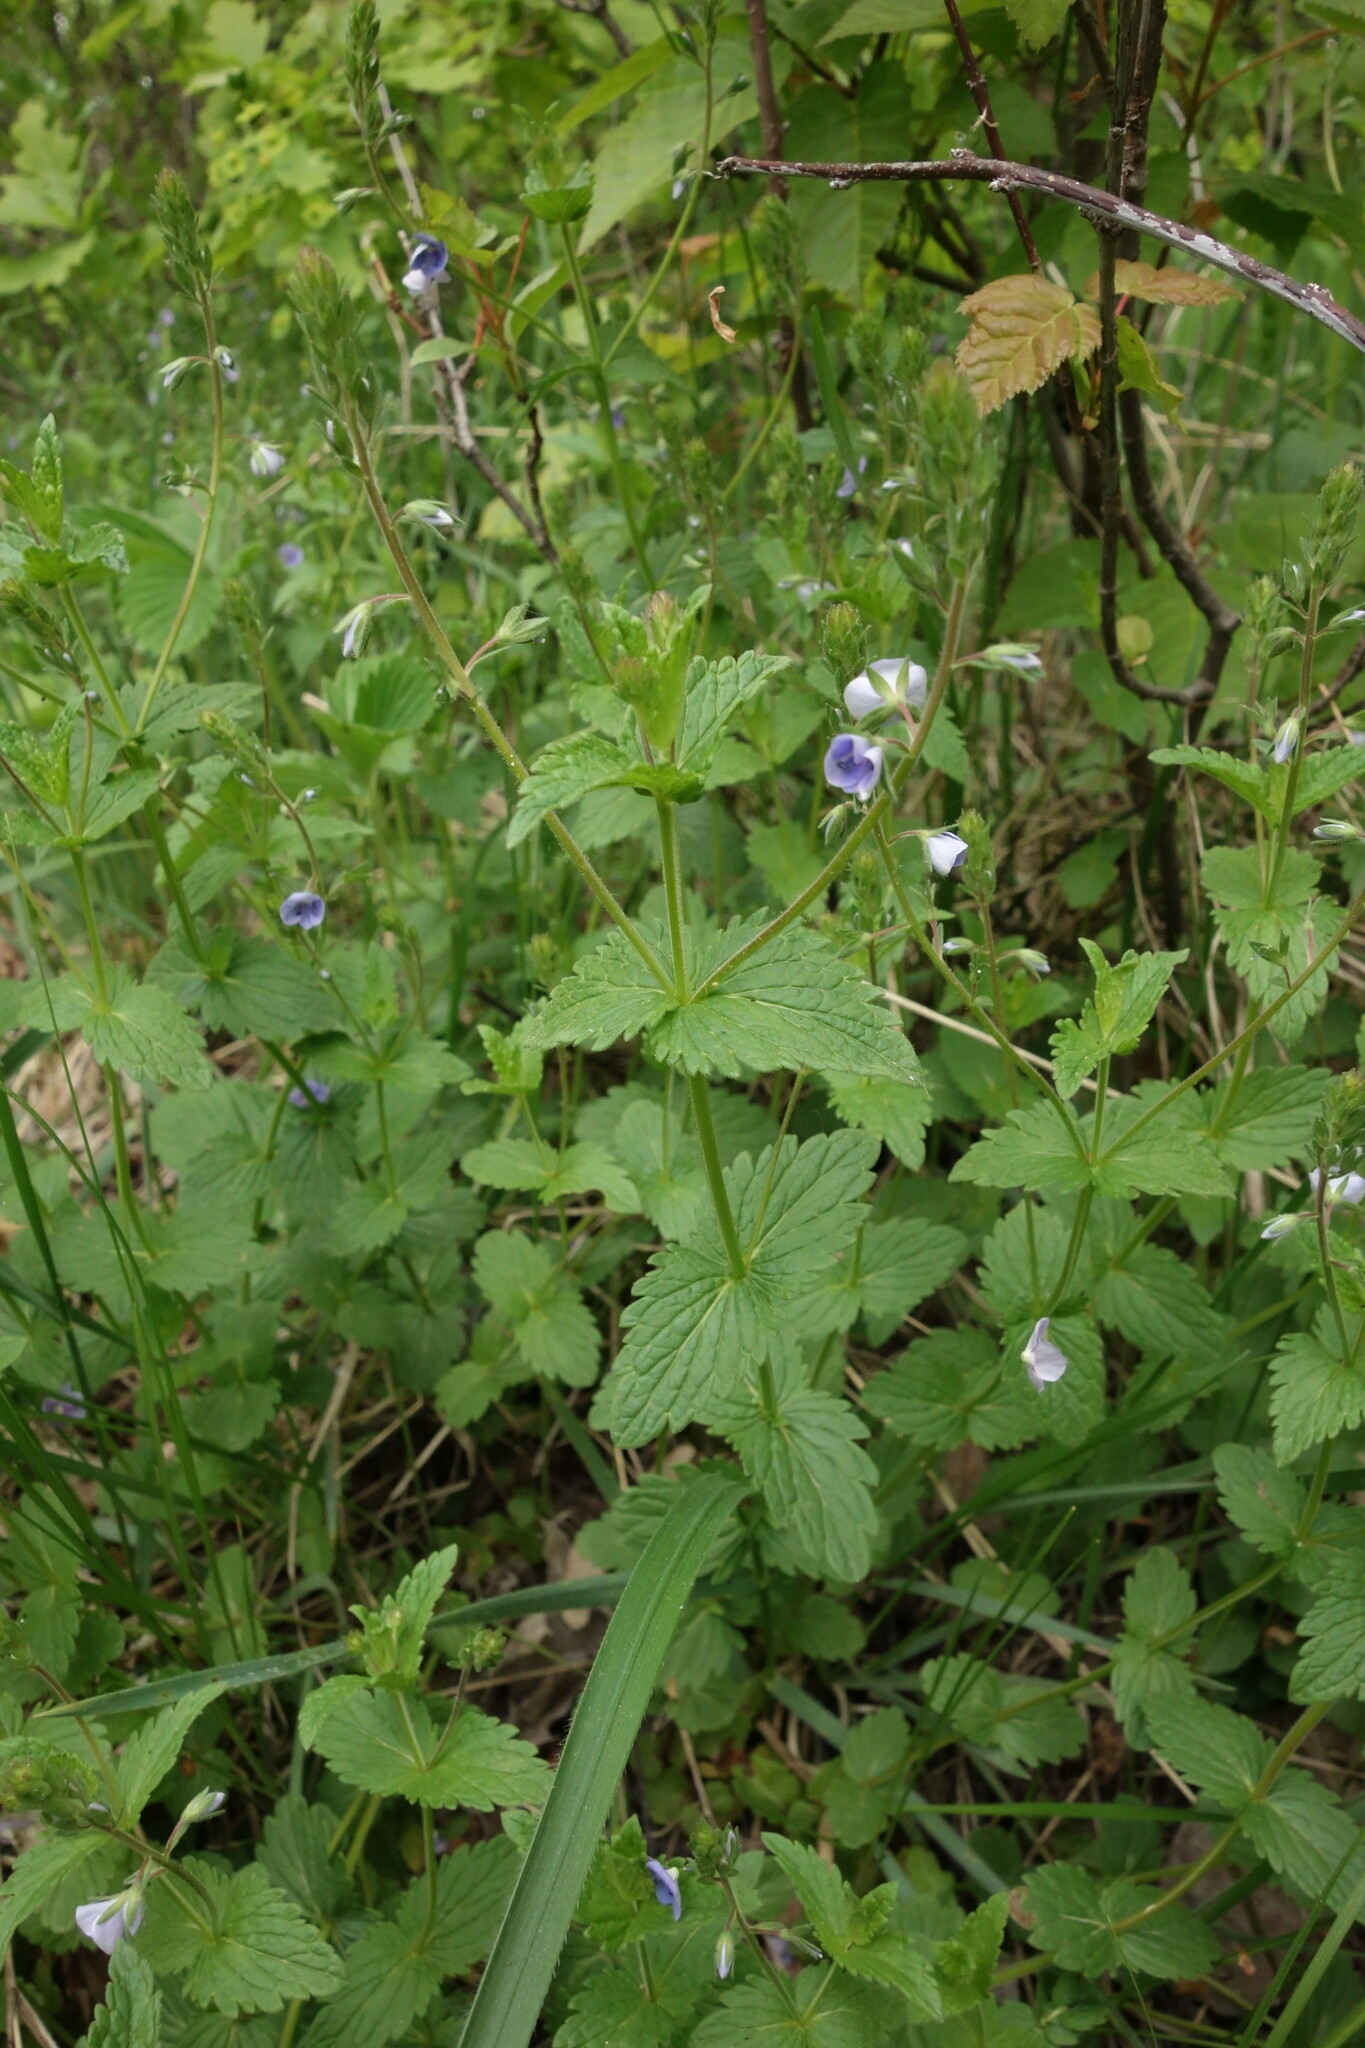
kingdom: Plantae
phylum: Tracheophyta
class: Magnoliopsida
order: Lamiales
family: Plantaginaceae
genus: Veronica
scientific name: Veronica chamaedrys
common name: Germander speedwell
